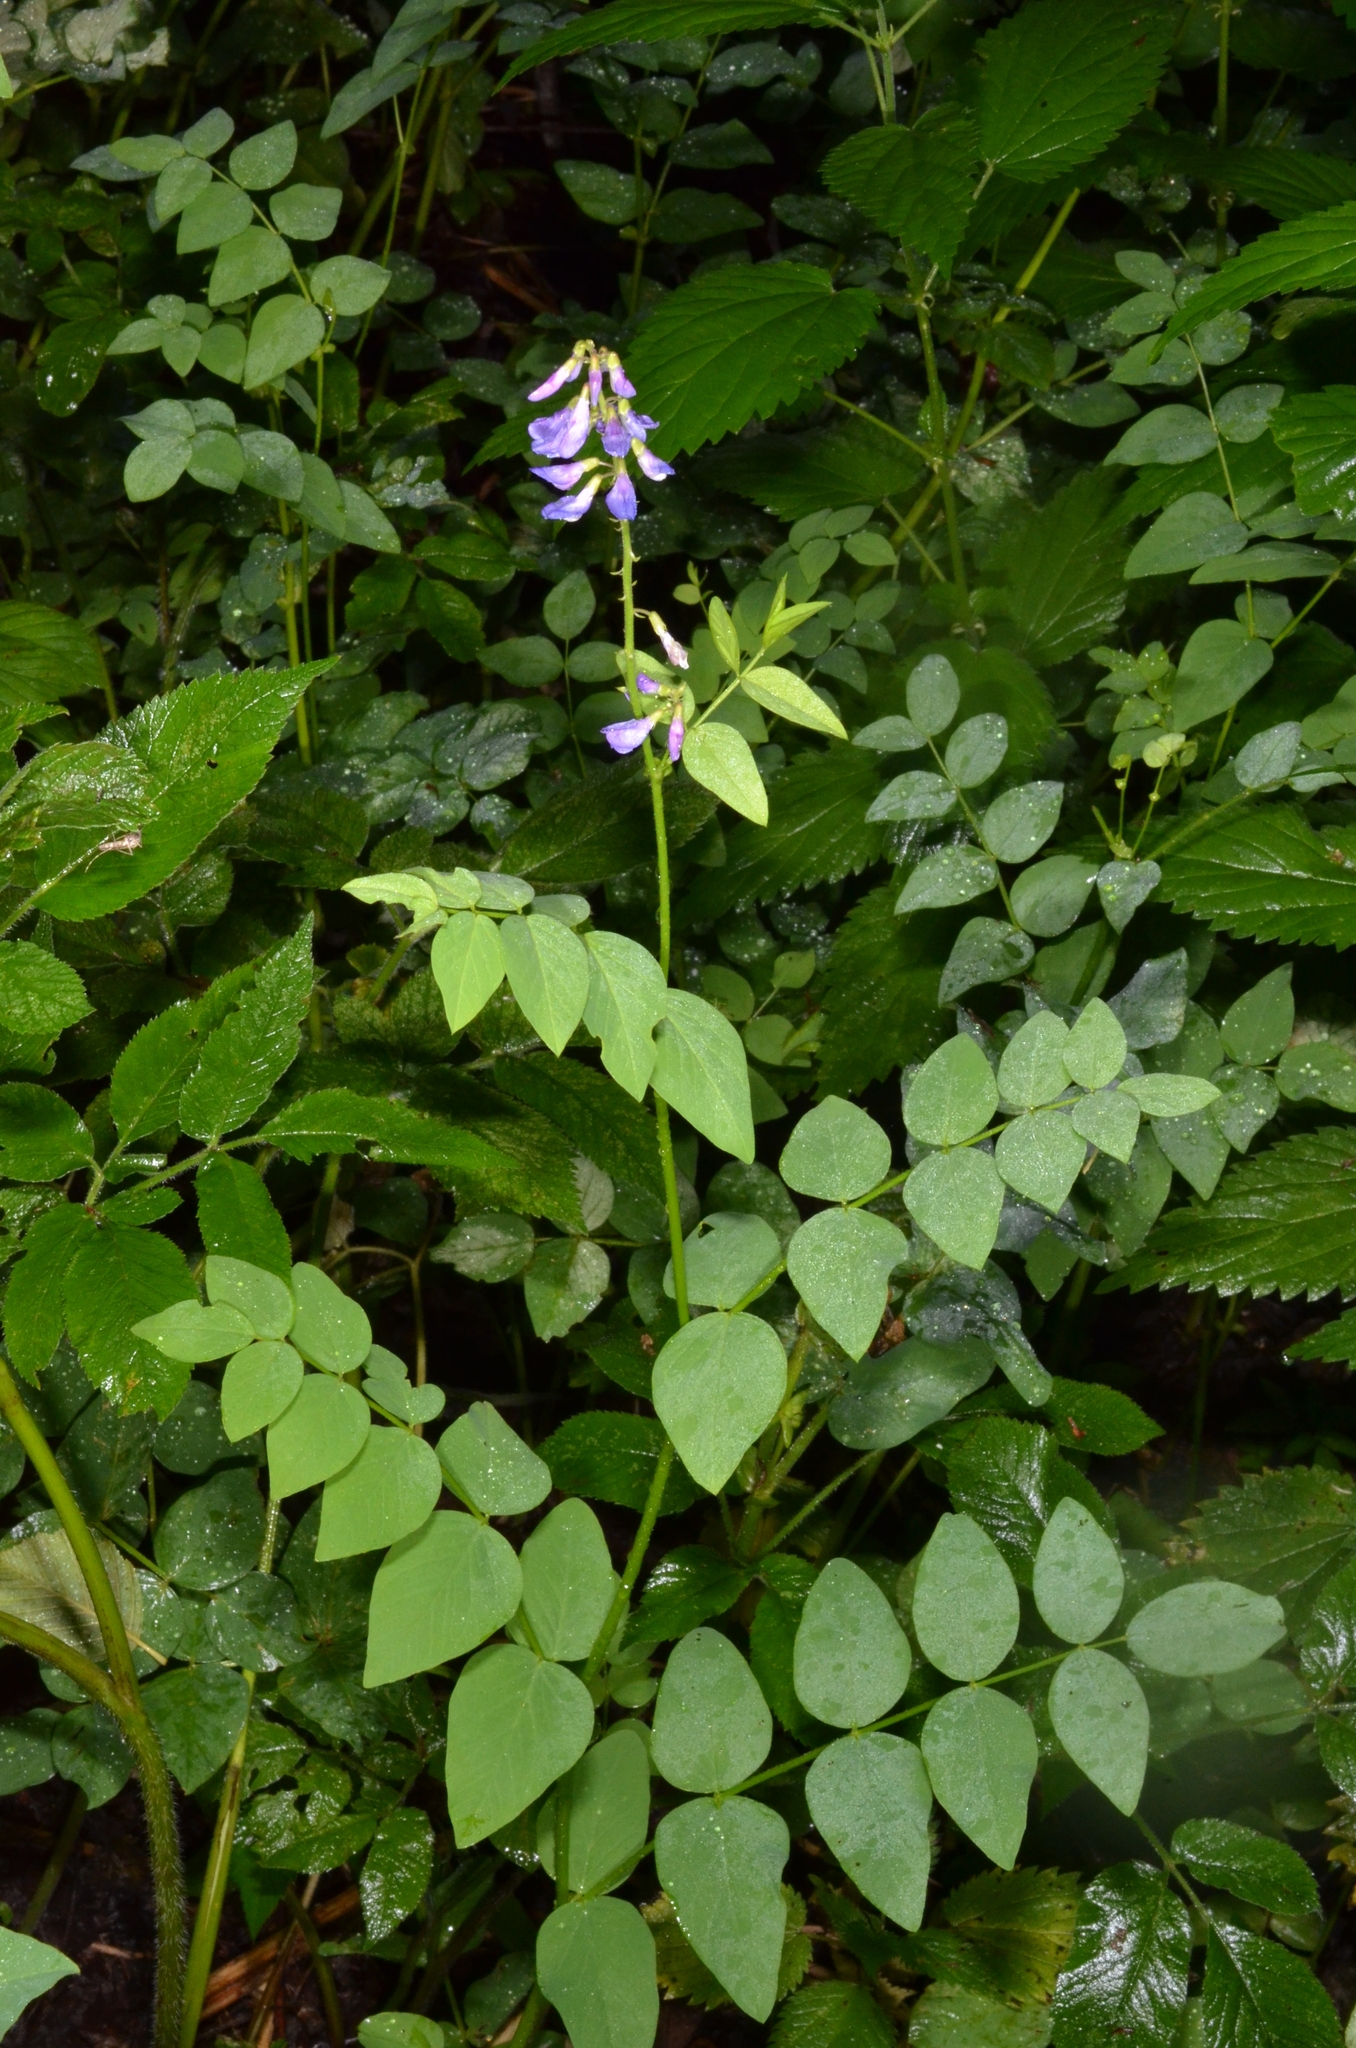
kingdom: Plantae
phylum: Tracheophyta
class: Magnoliopsida
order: Fabales
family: Fabaceae
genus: Galega
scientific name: Galega orientalis
